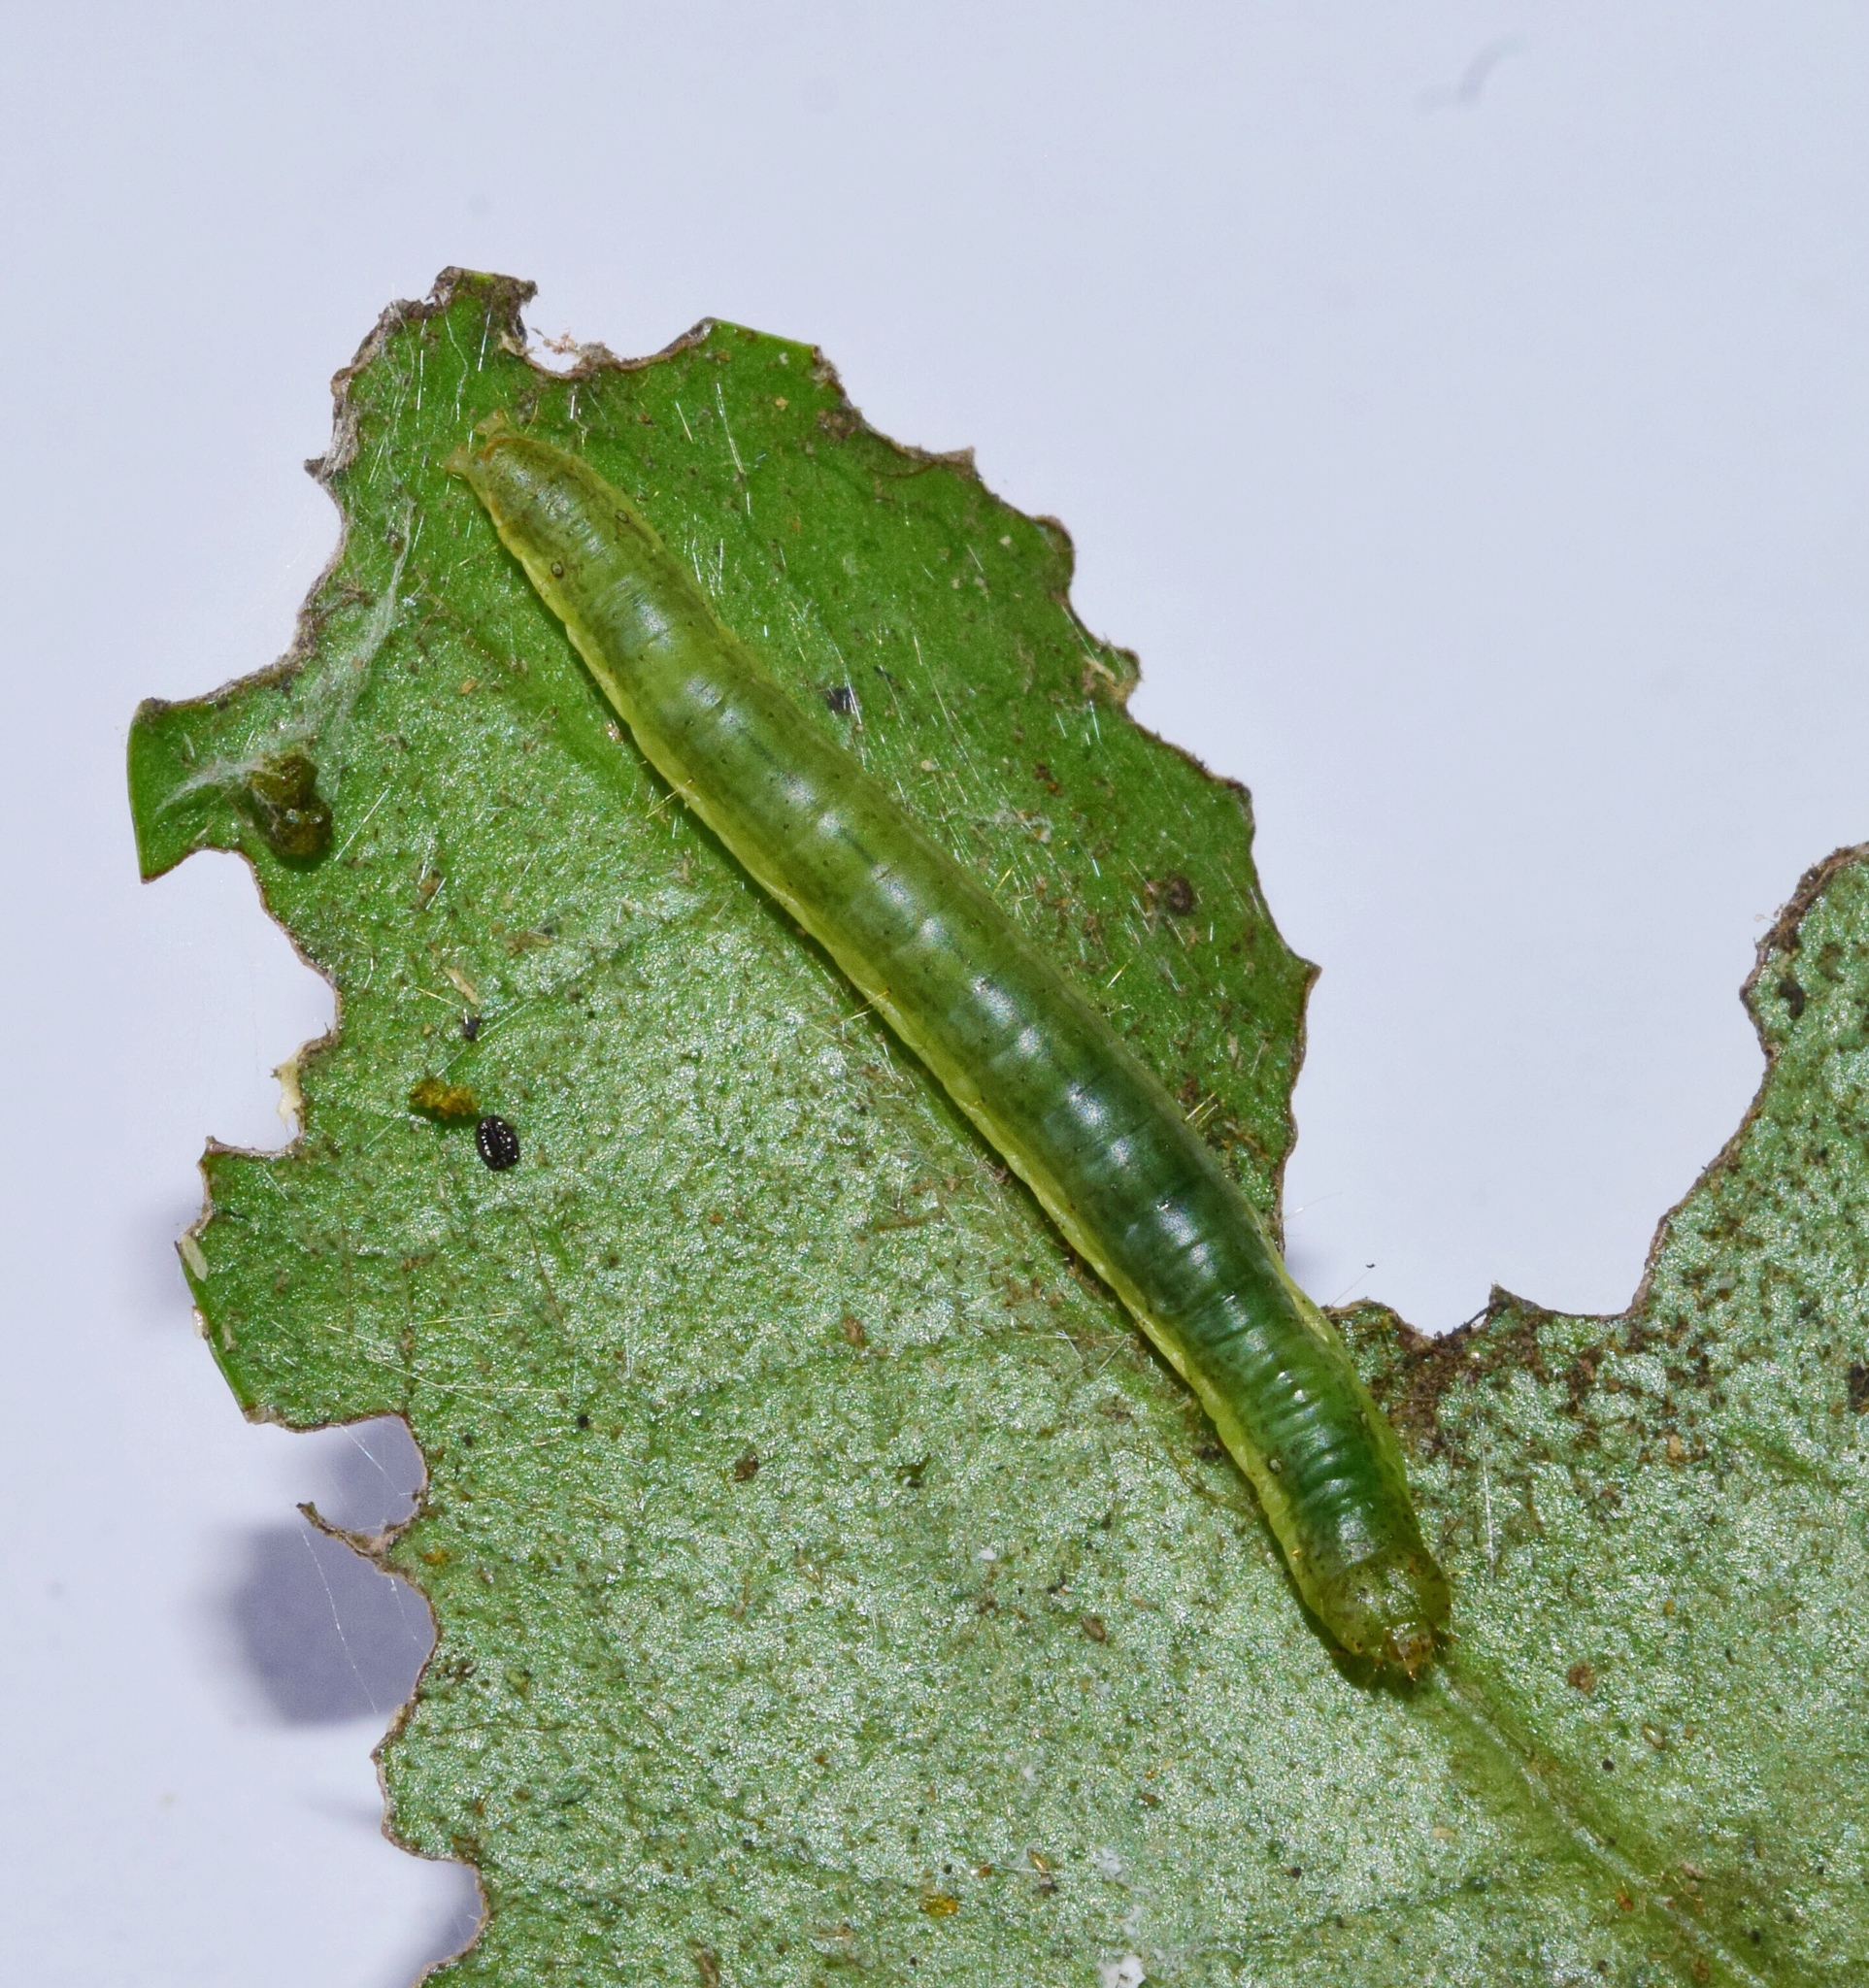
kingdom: Animalia
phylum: Arthropoda
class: Insecta
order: Lepidoptera
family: Pyralidae
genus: Acrobasis
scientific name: Acrobasis
